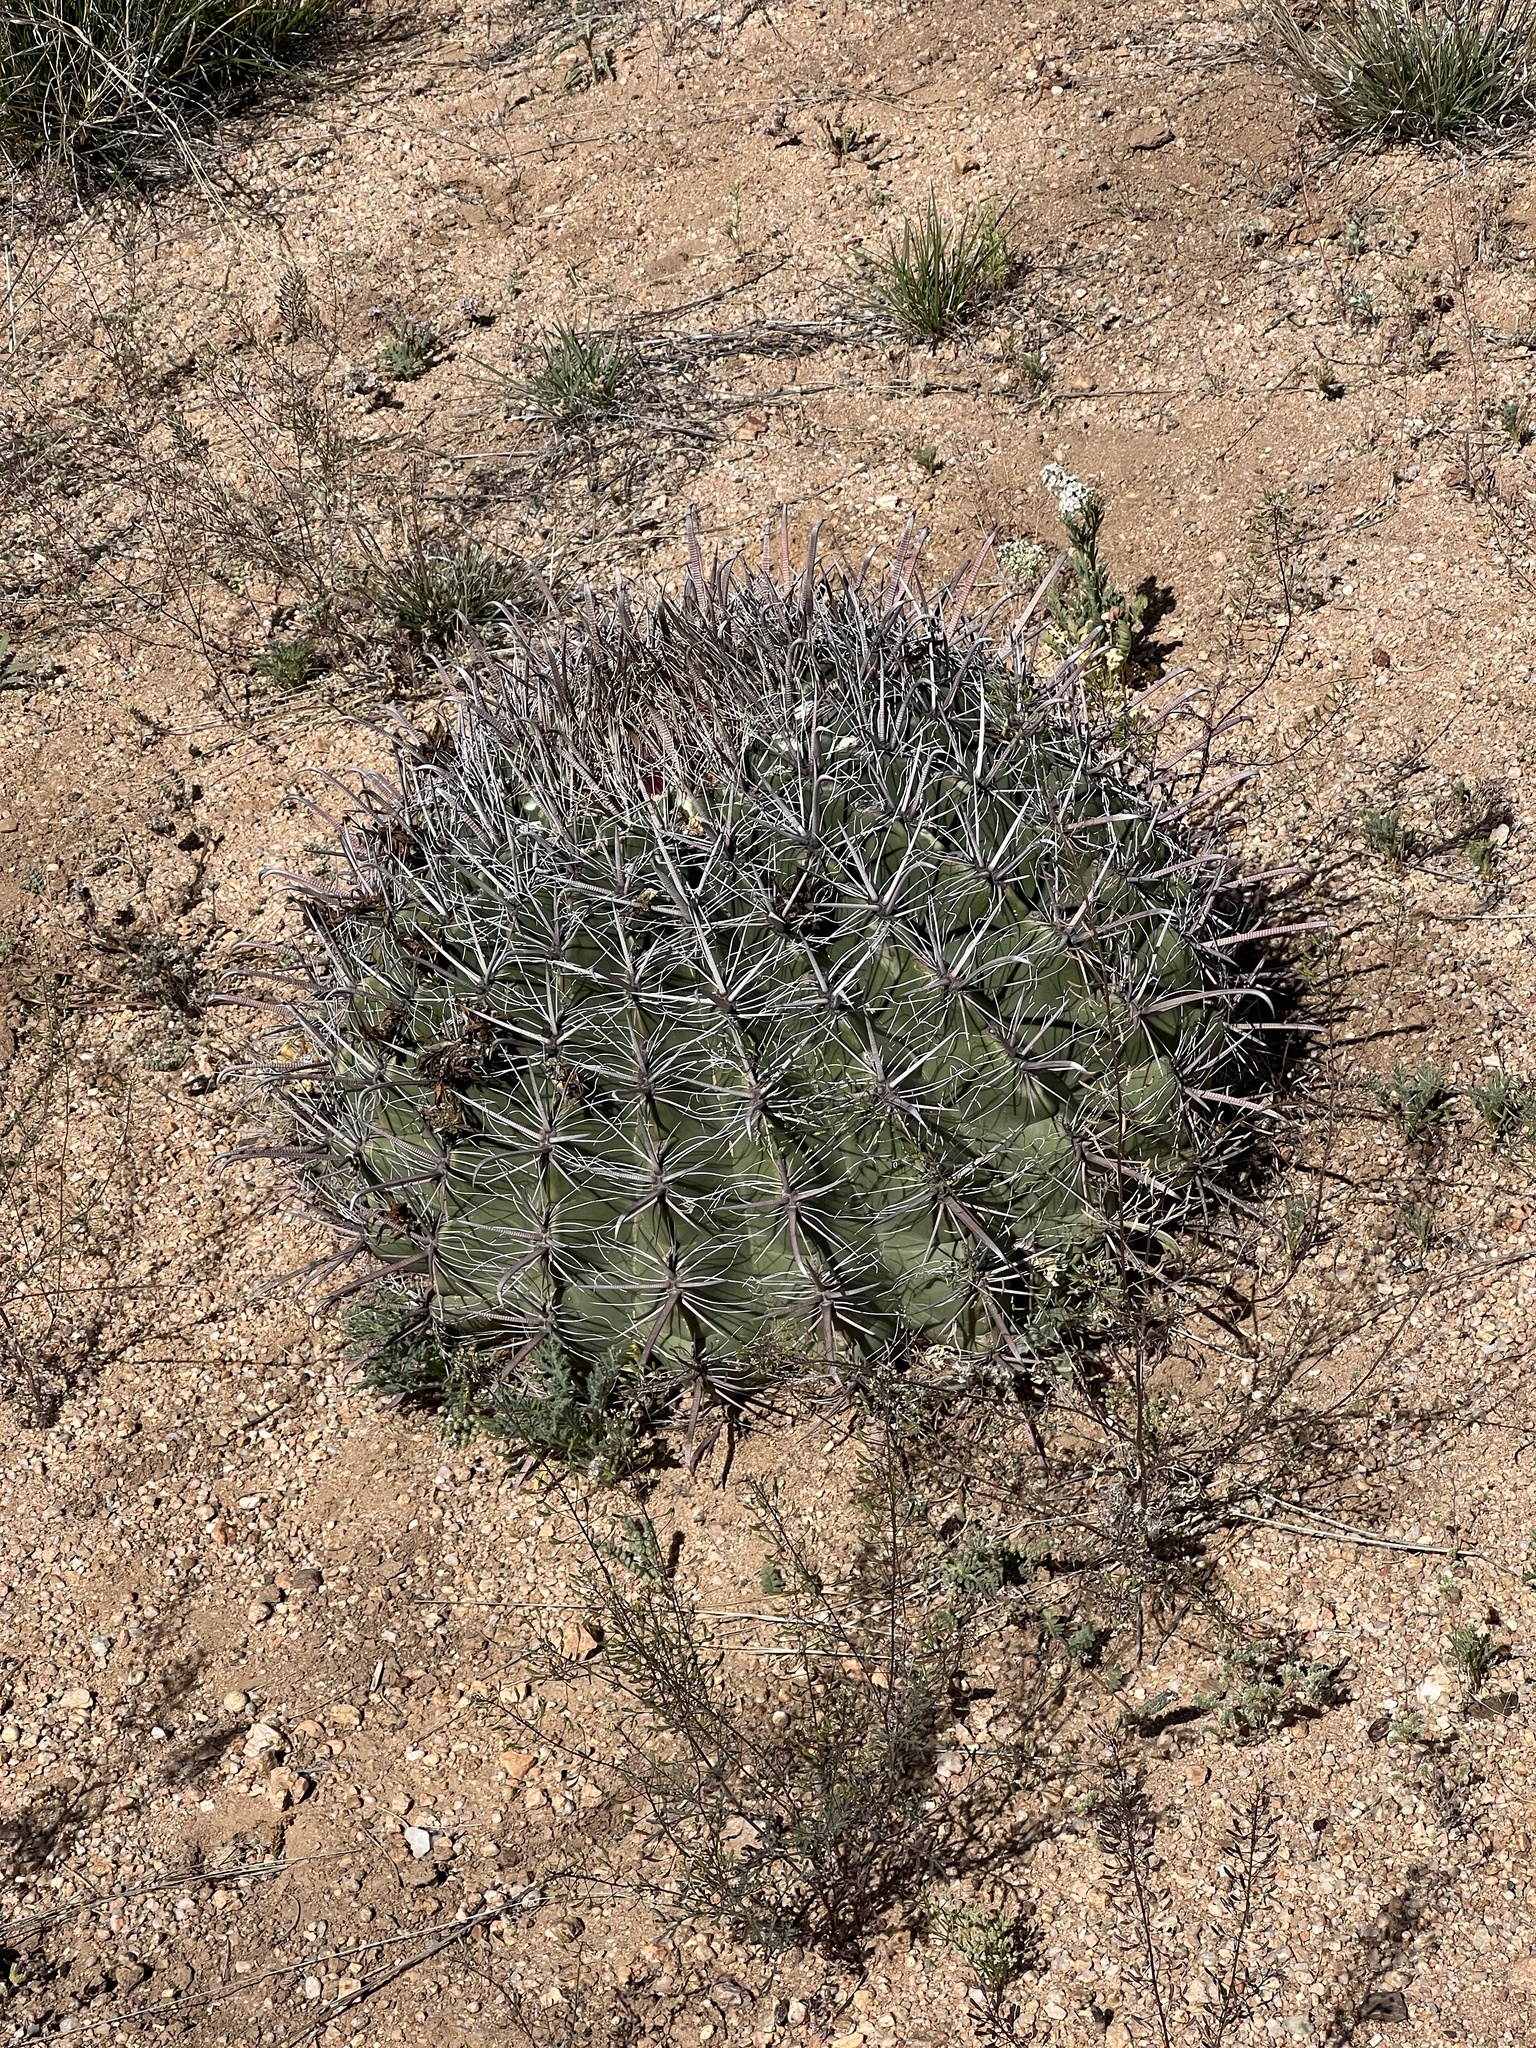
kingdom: Plantae
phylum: Tracheophyta
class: Magnoliopsida
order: Caryophyllales
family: Cactaceae
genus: Ferocactus
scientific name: Ferocactus wislizeni
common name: Candy barrel cactus
